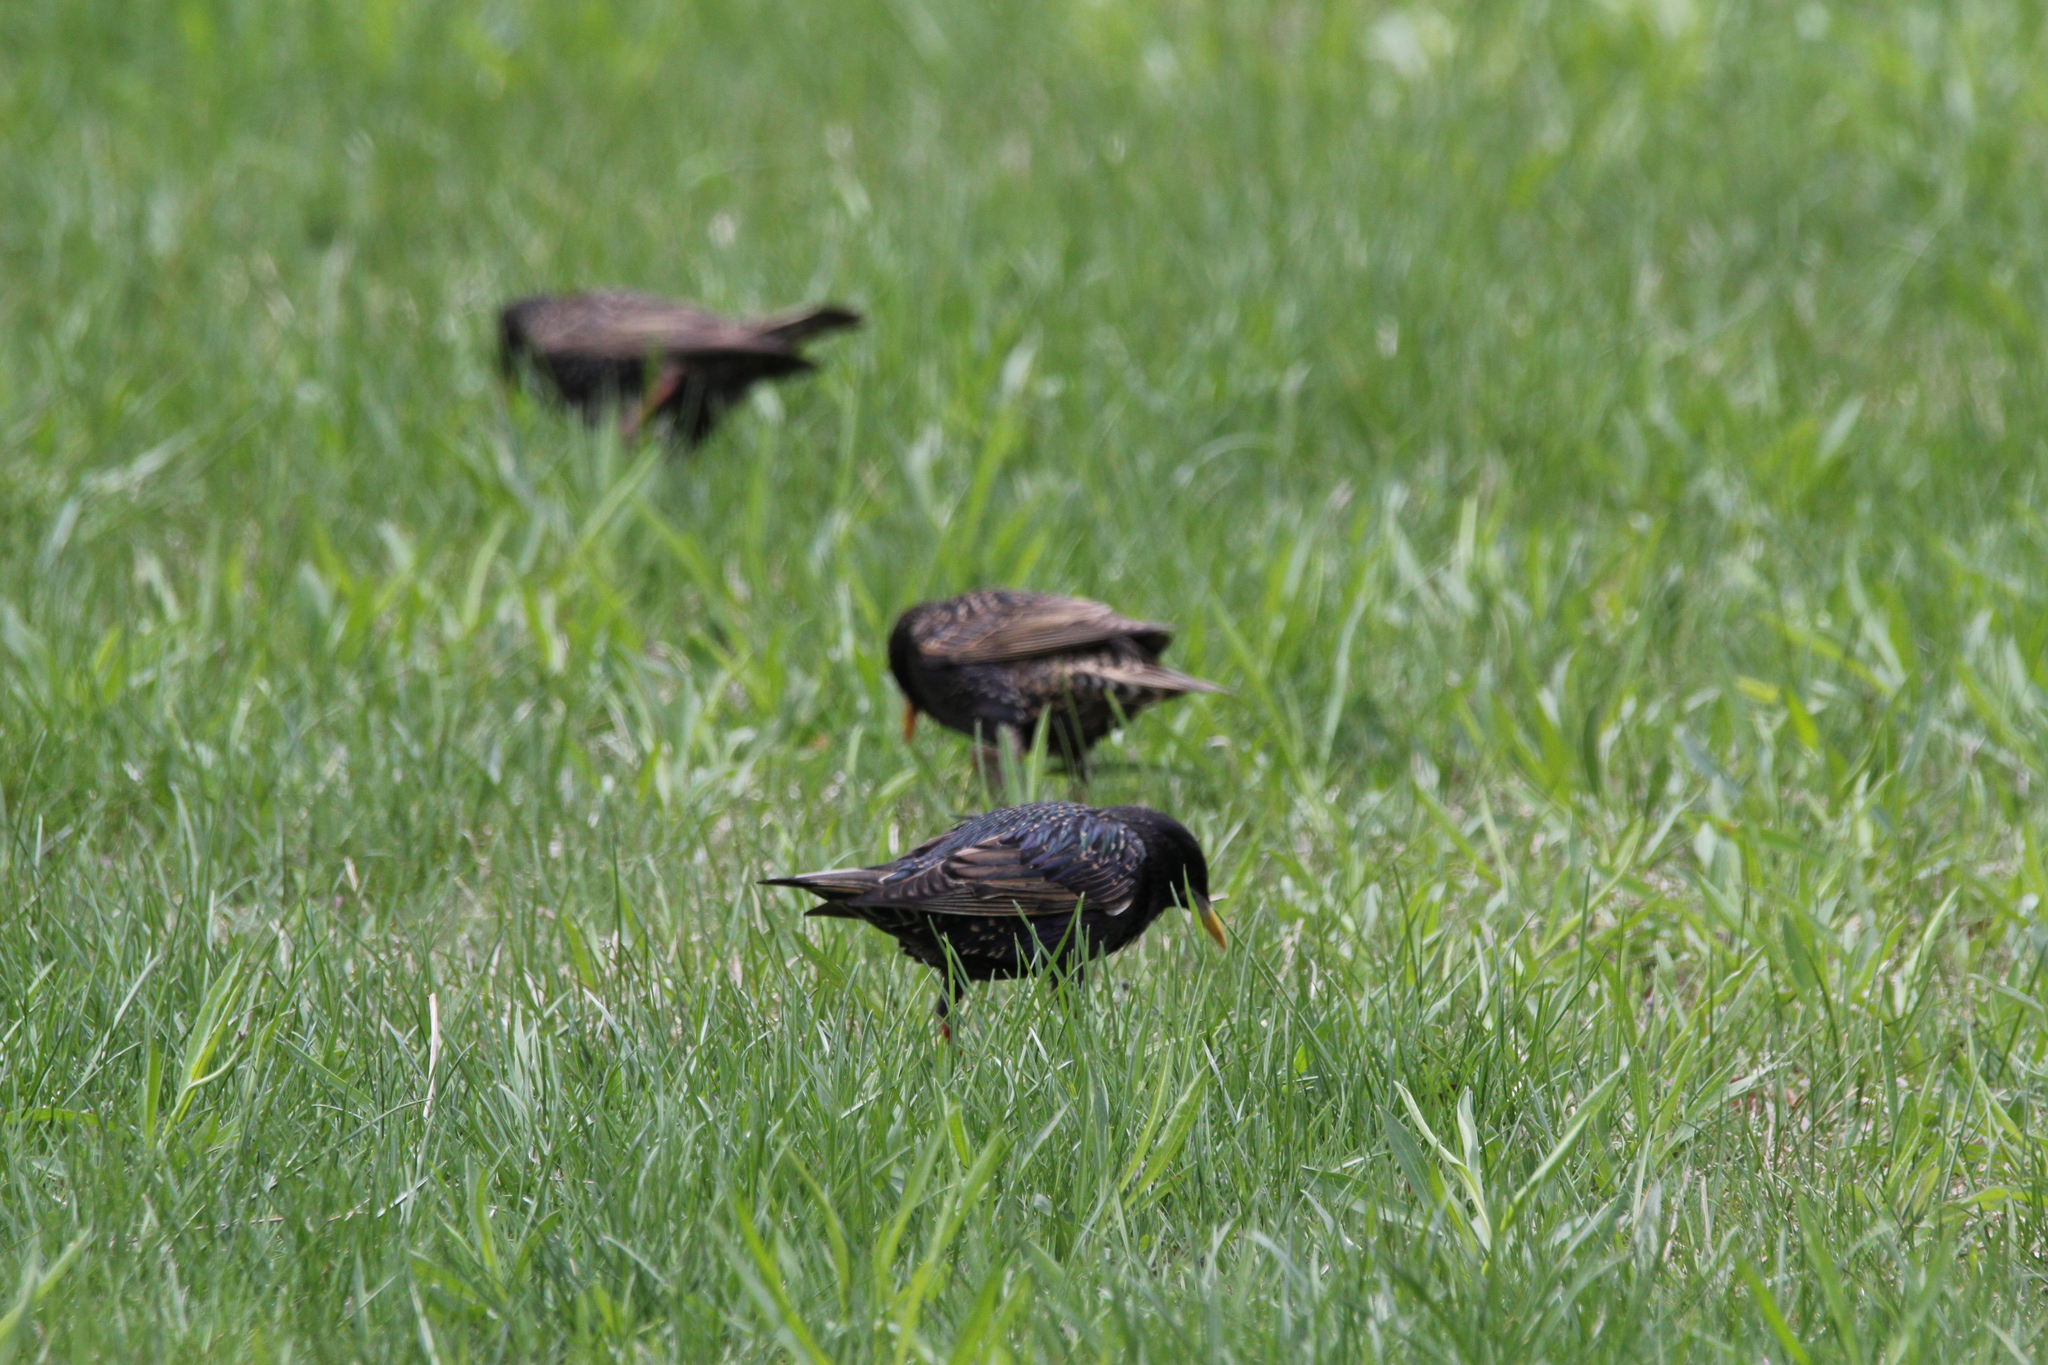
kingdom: Animalia
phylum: Chordata
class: Aves
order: Passeriformes
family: Sturnidae
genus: Sturnus
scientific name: Sturnus vulgaris
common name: Common starling
